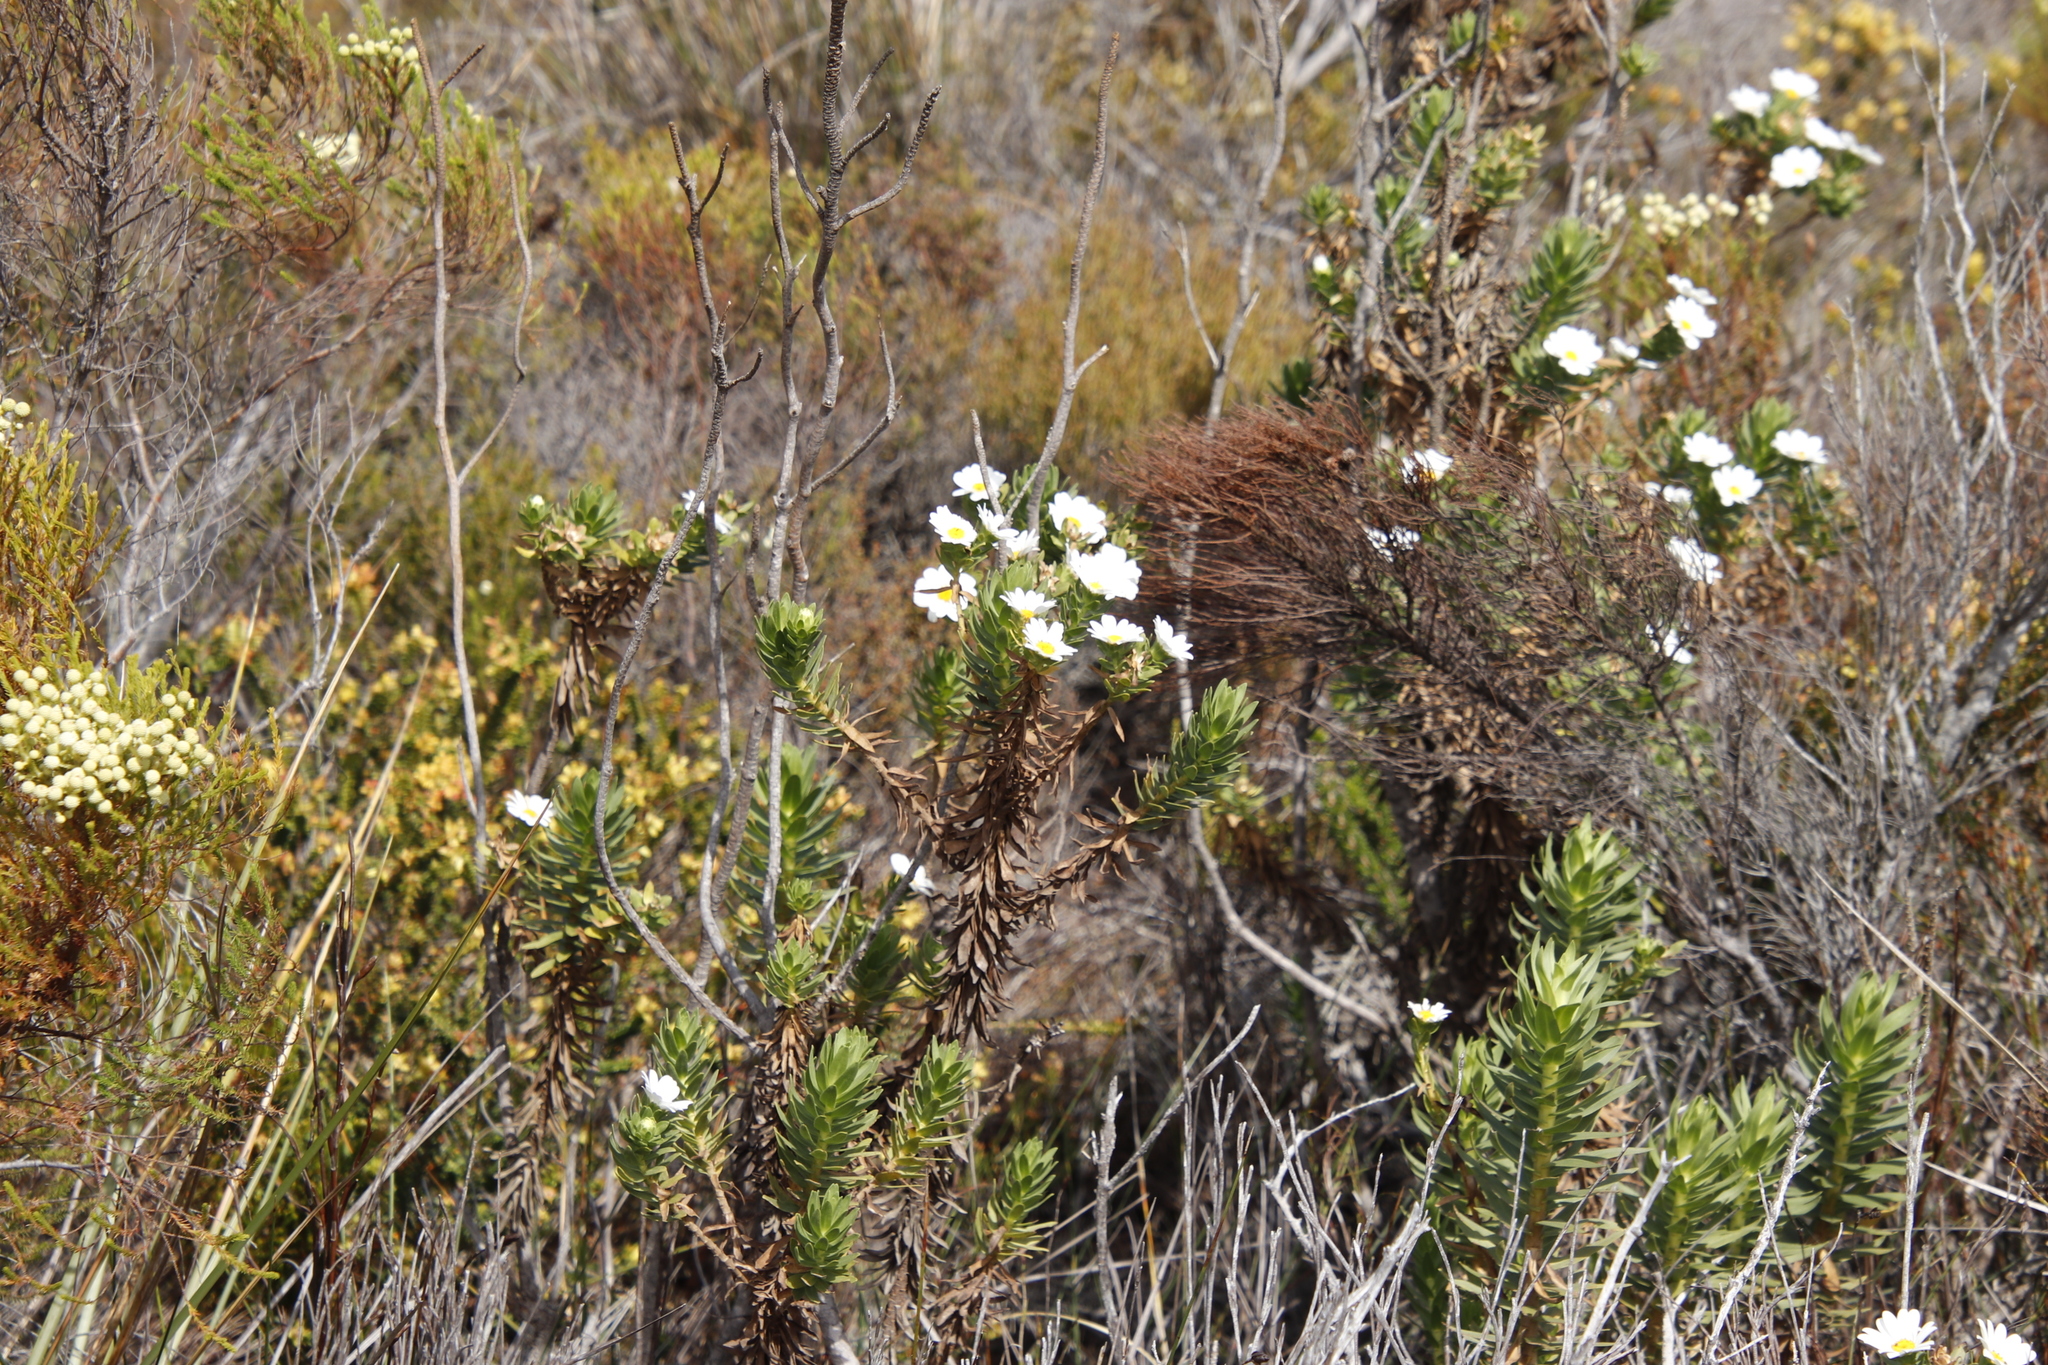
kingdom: Plantae
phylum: Tracheophyta
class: Magnoliopsida
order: Asterales
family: Asteraceae
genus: Osmitopsis
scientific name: Osmitopsis asteriscoides
